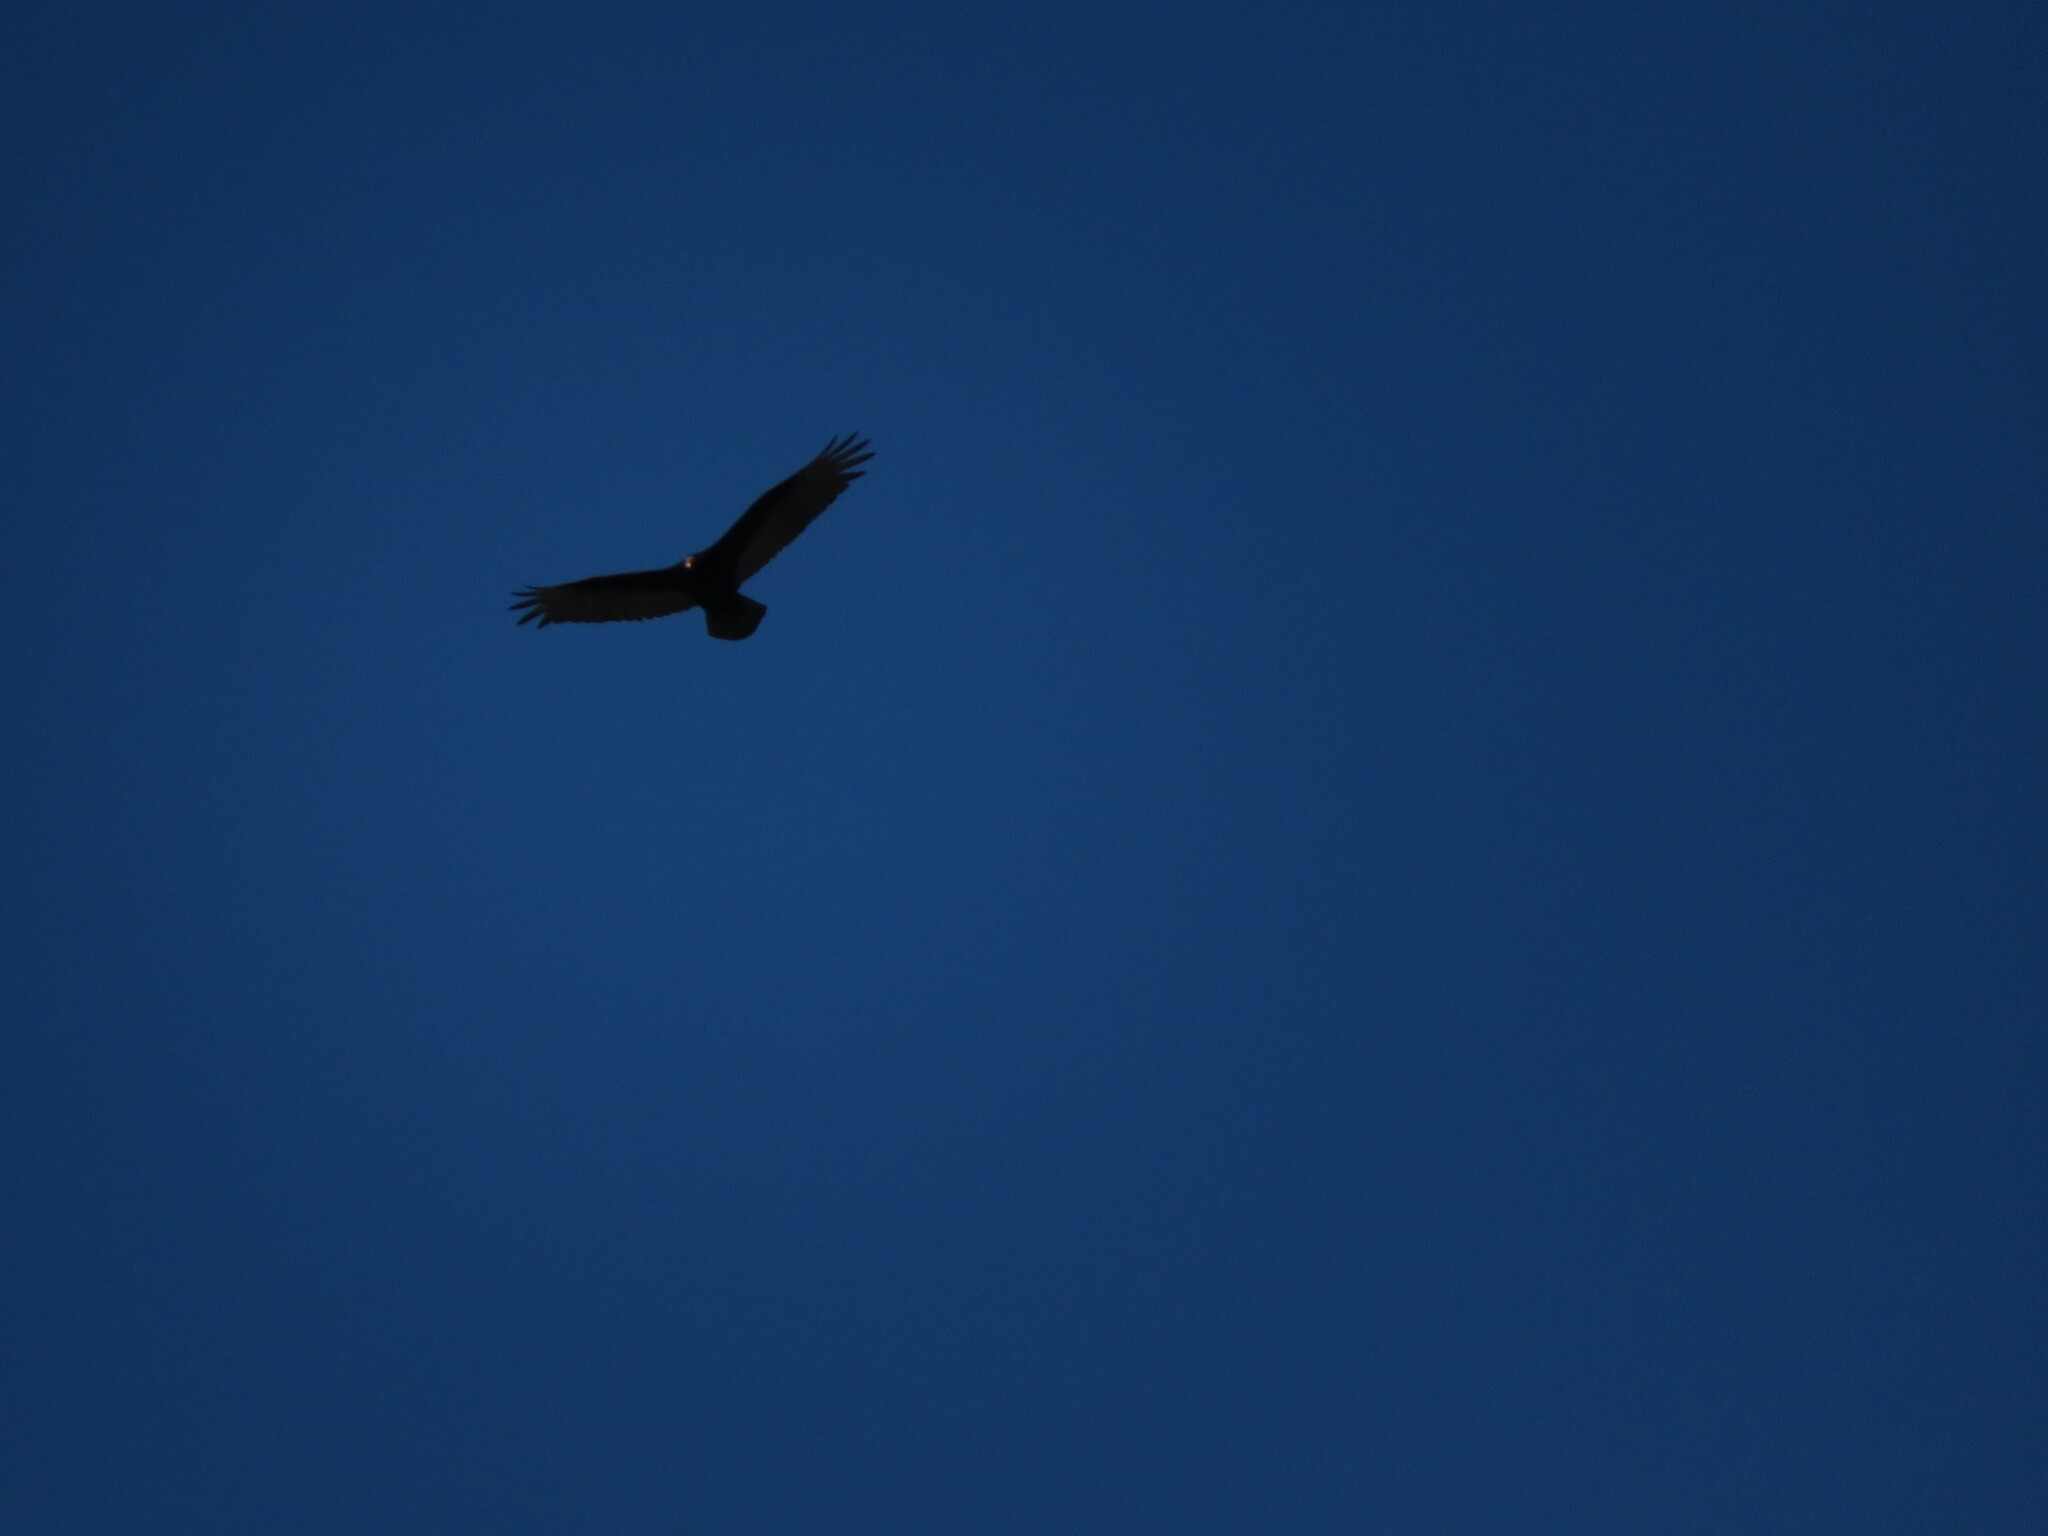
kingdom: Animalia
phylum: Chordata
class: Aves
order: Accipitriformes
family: Cathartidae
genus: Cathartes
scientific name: Cathartes aura
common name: Turkey vulture
